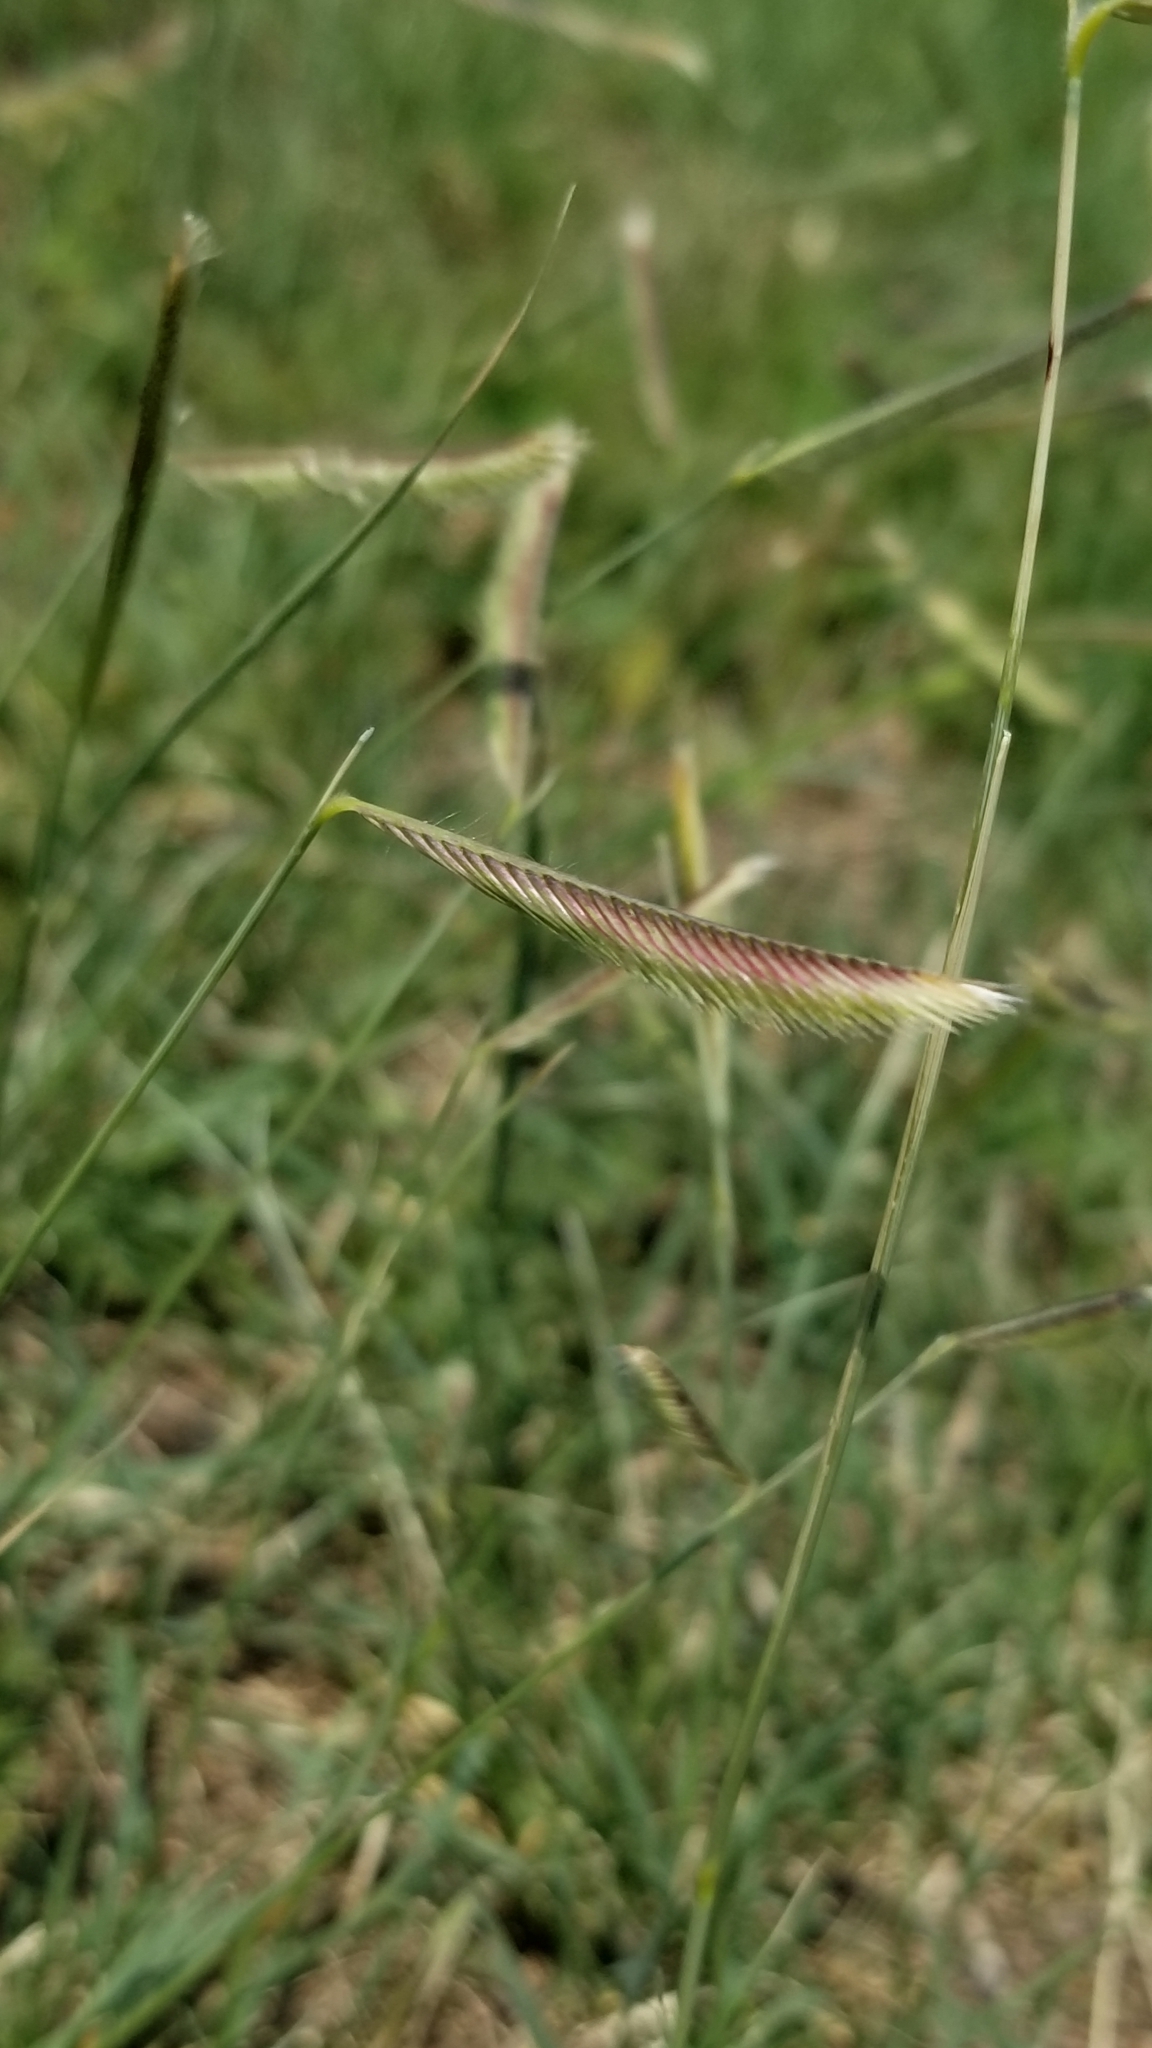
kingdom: Plantae
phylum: Tracheophyta
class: Liliopsida
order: Poales
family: Poaceae
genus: Bouteloua
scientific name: Bouteloua gracilis
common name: Blue grama
